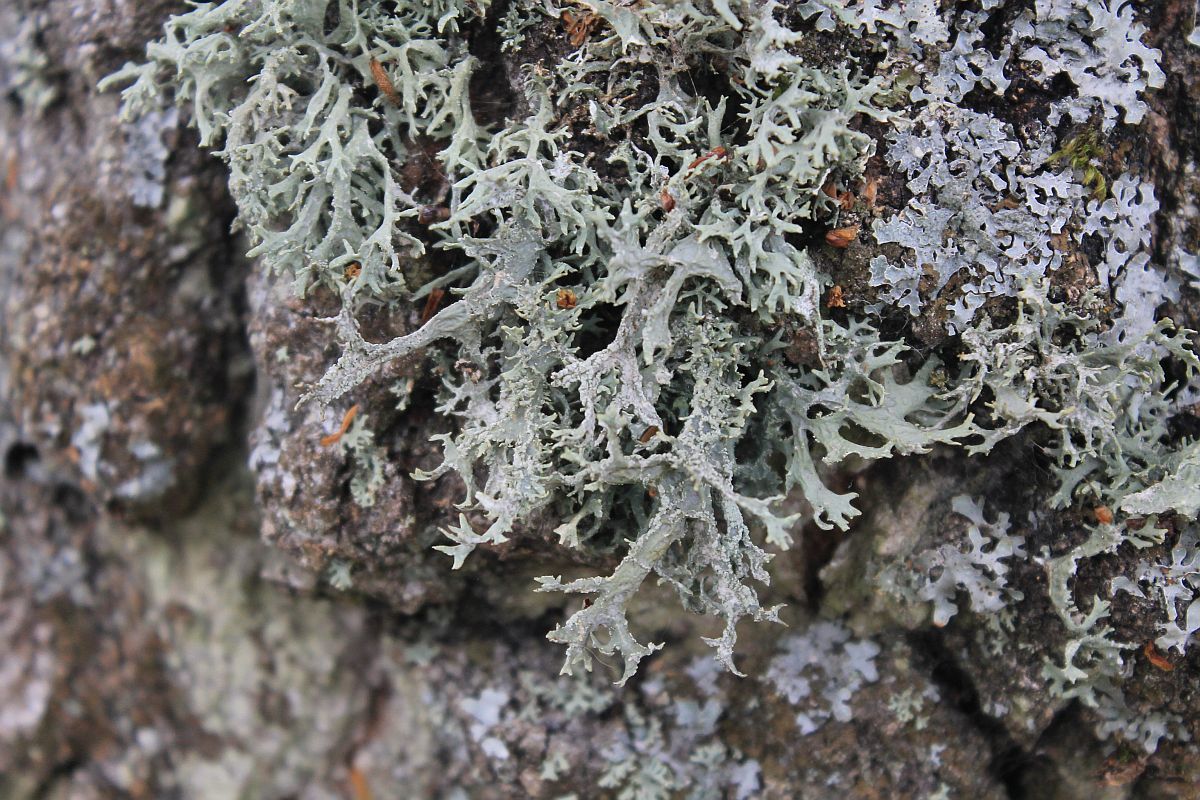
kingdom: Fungi
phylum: Ascomycota
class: Lecanoromycetes
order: Lecanorales
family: Parmeliaceae
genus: Evernia
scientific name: Evernia prunastri
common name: Oak moss
